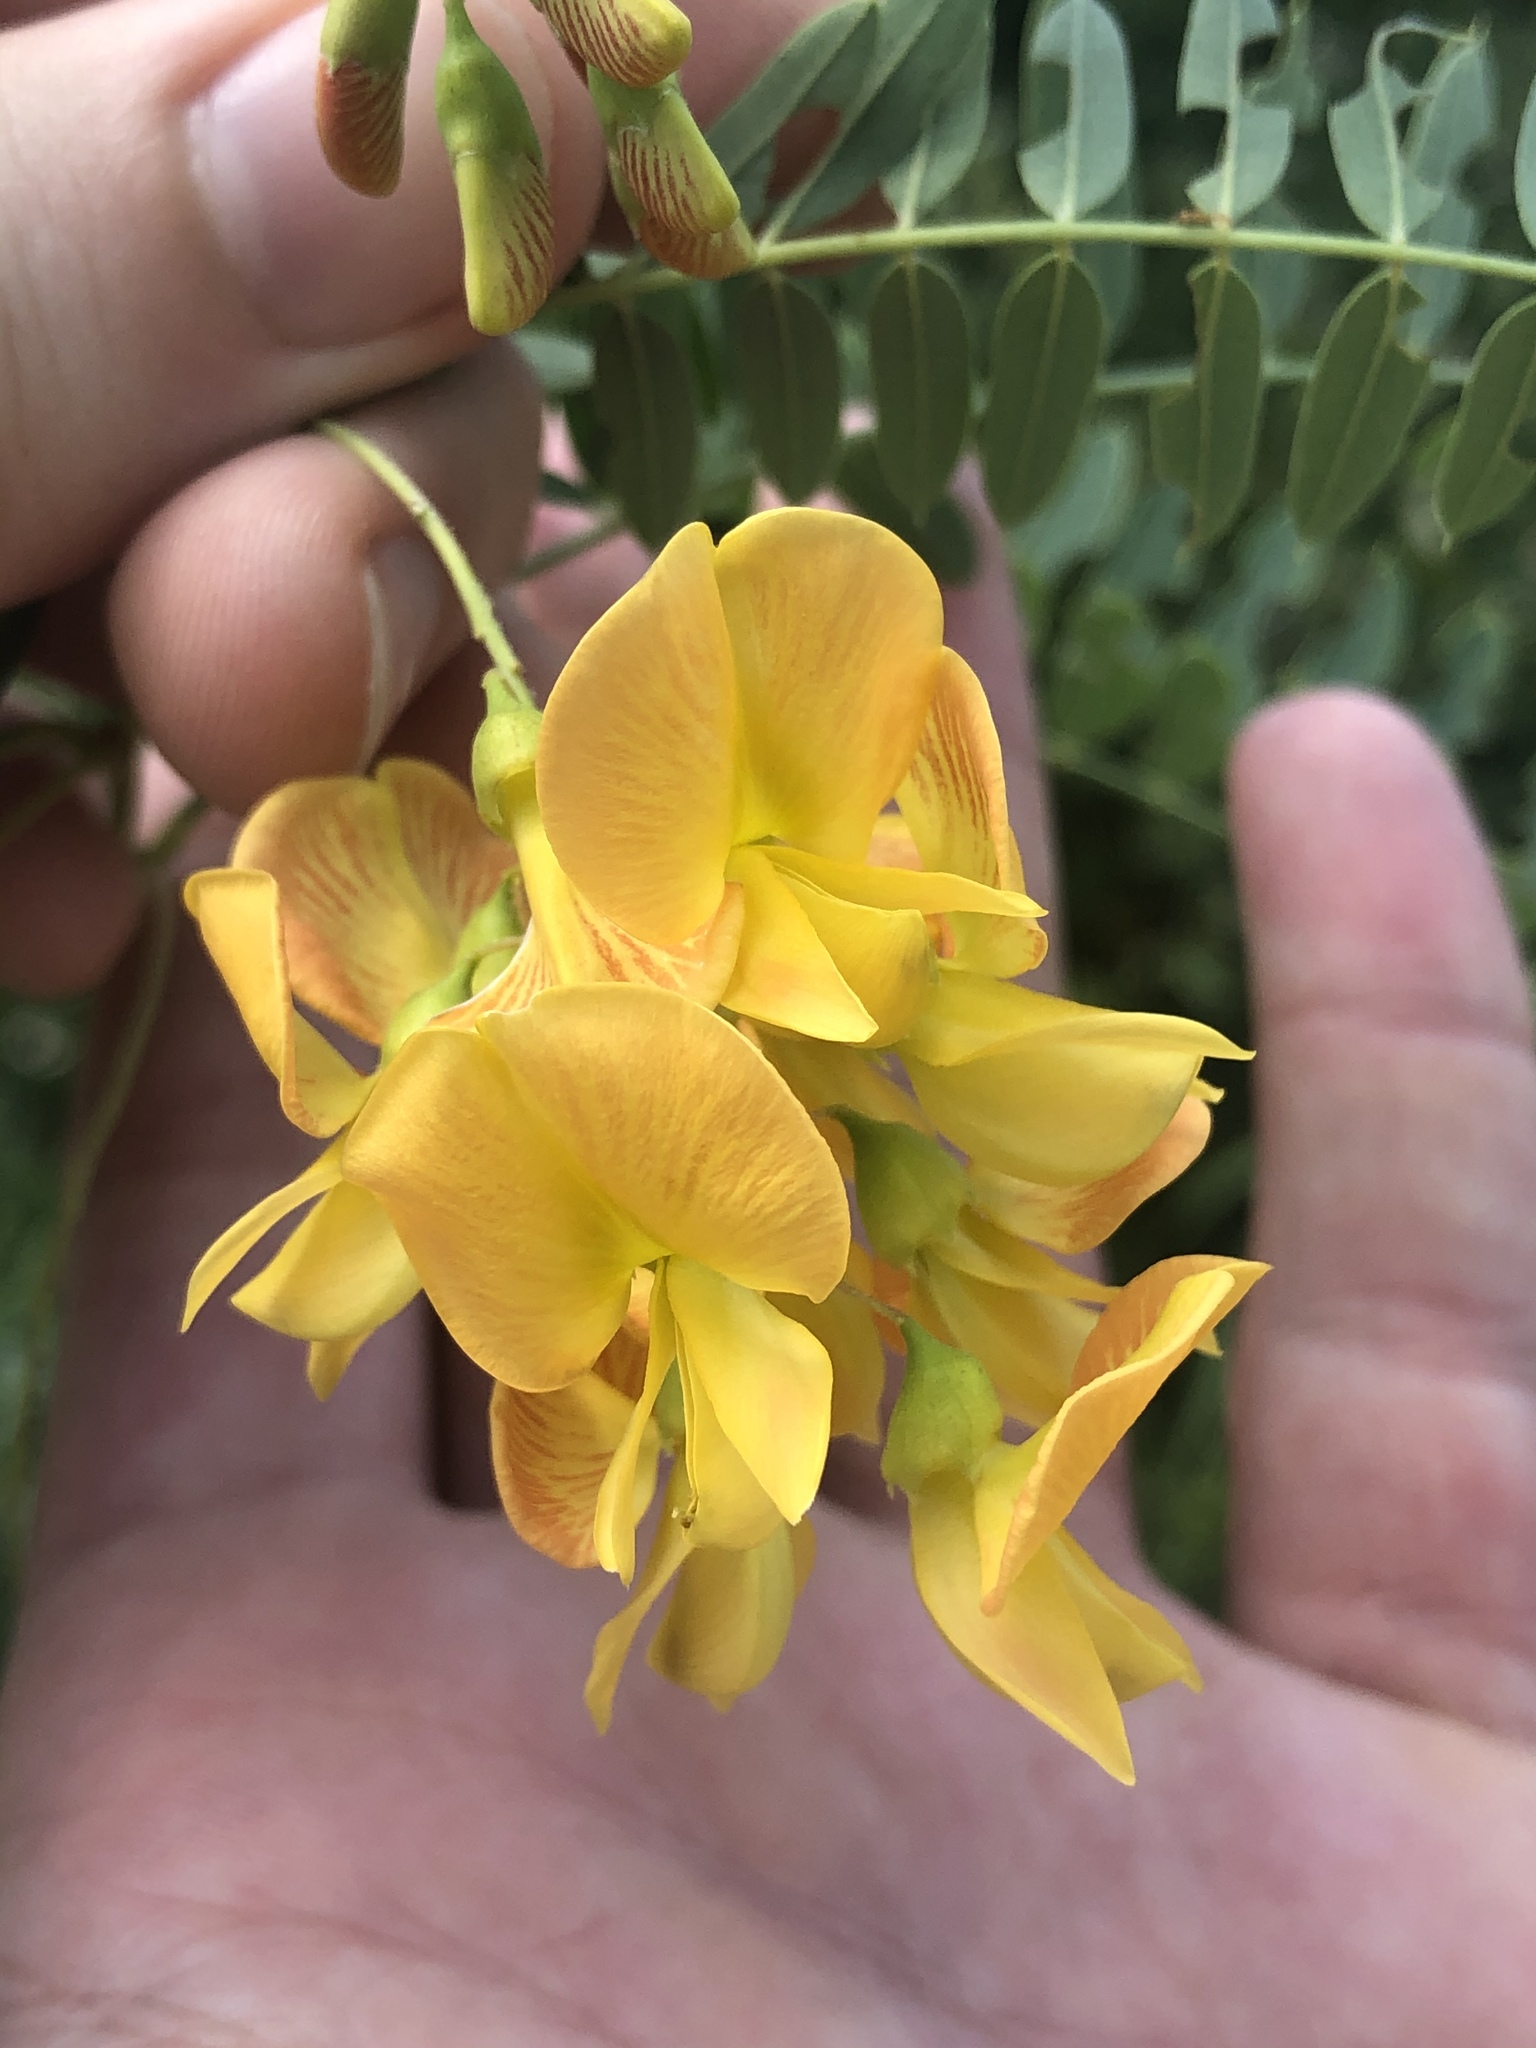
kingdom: Plantae
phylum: Tracheophyta
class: Magnoliopsida
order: Fabales
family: Fabaceae
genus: Sesbania
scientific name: Sesbania drummondii
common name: Poison-bean
